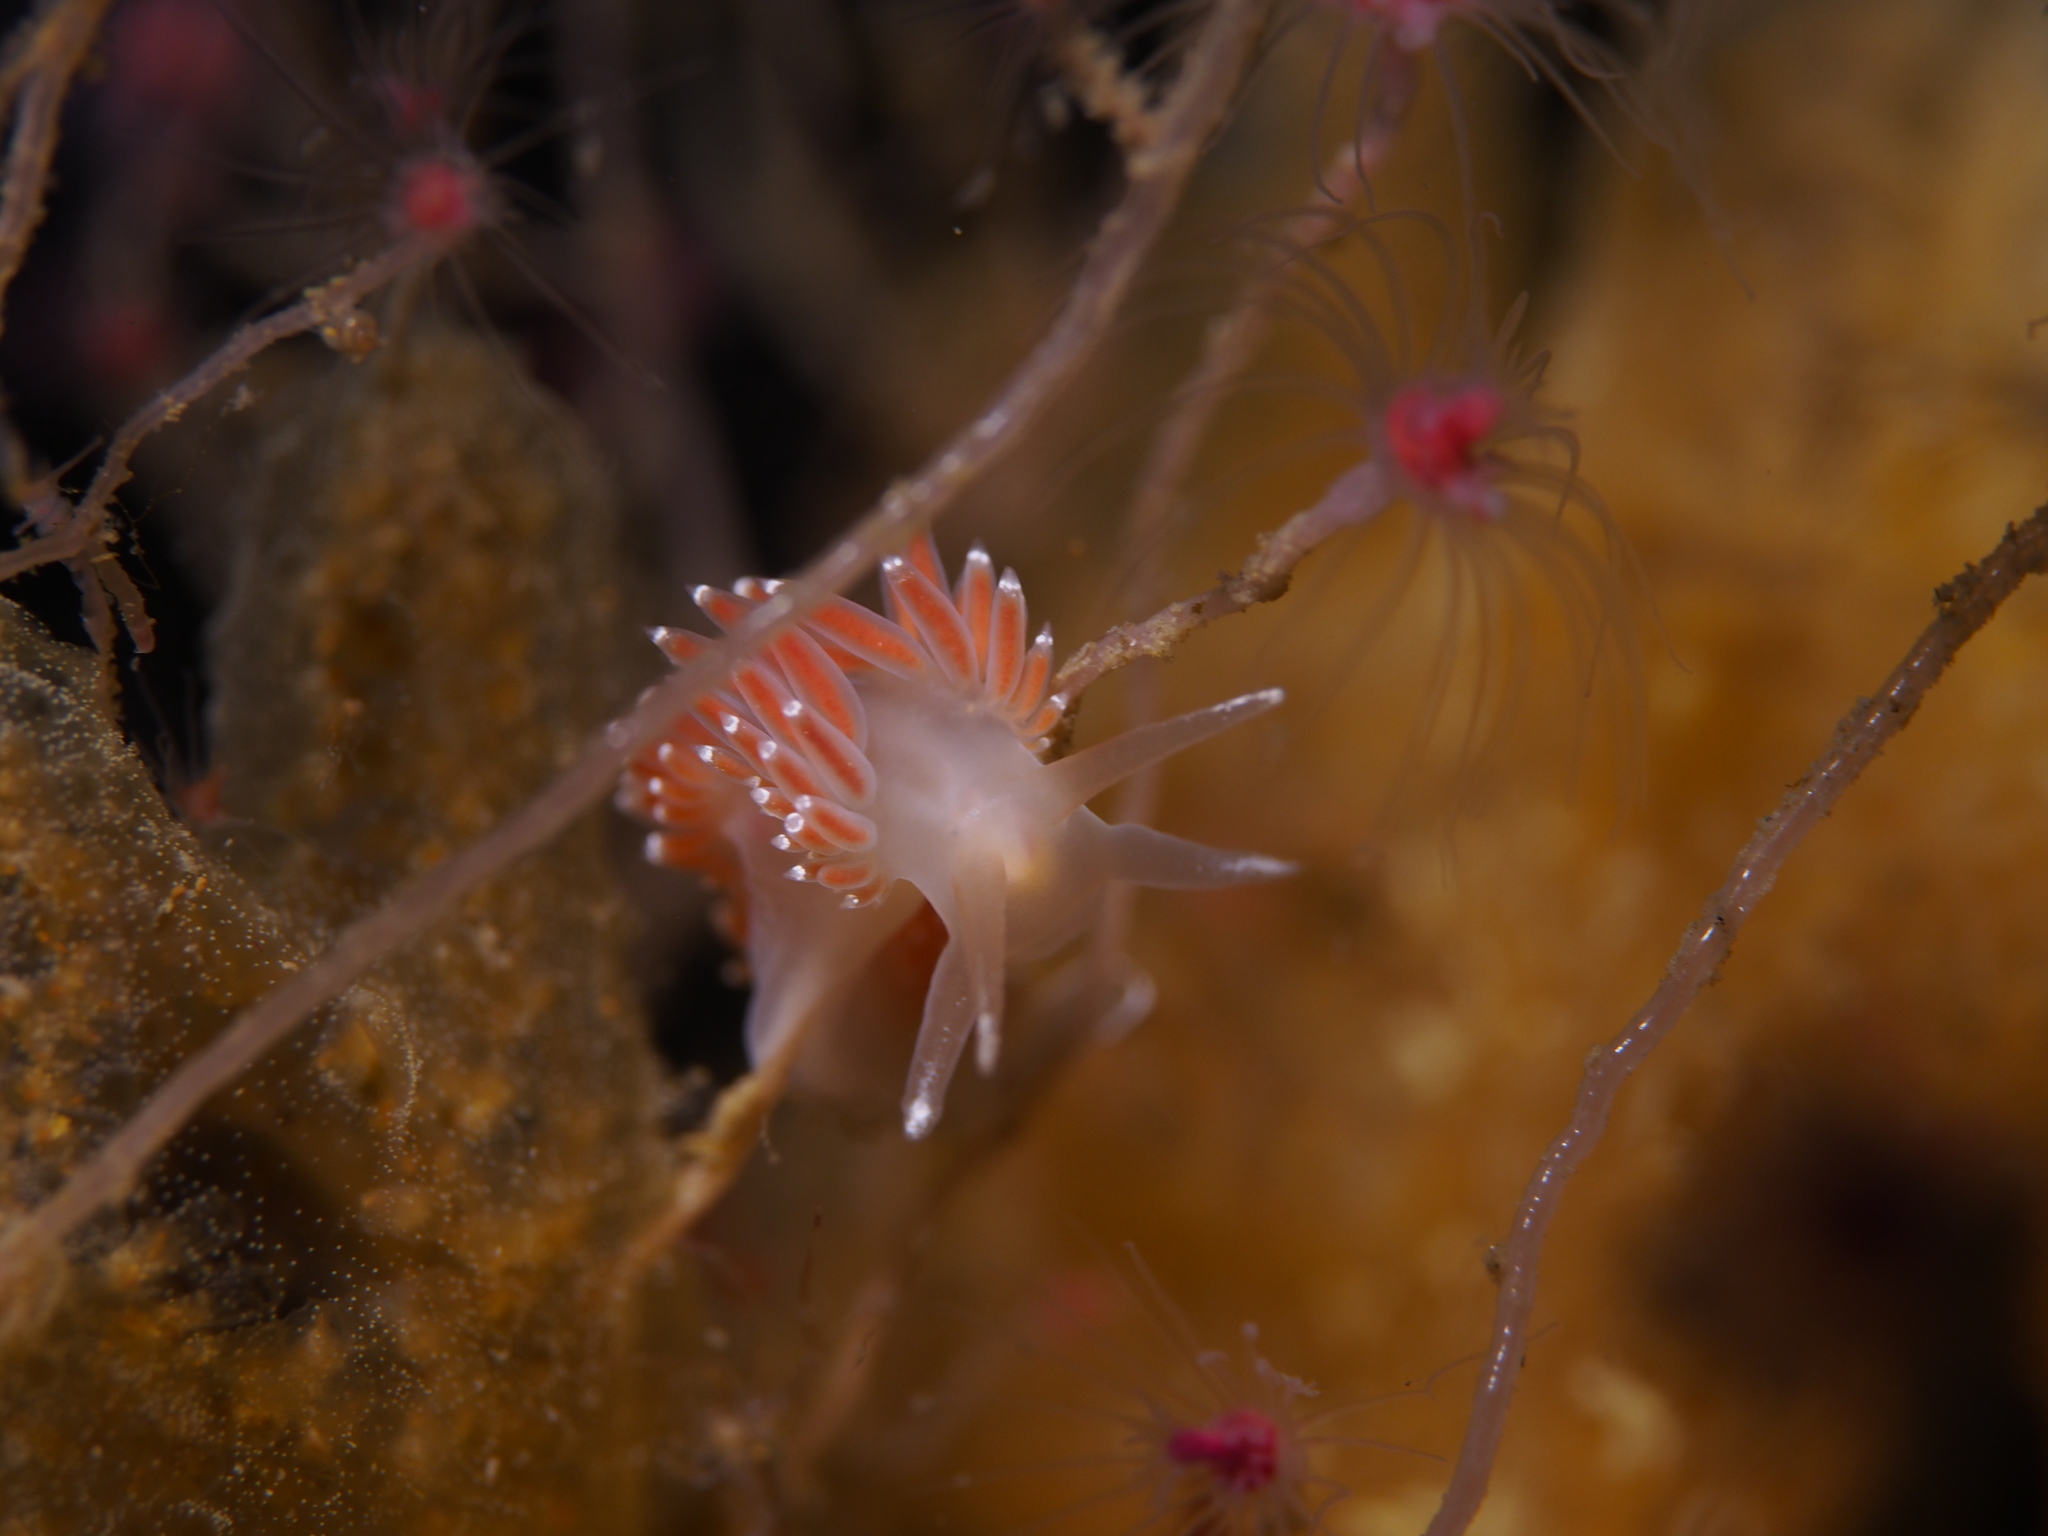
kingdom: Animalia
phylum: Mollusca
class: Gastropoda
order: Nudibranchia
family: Coryphellidae
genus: Coryphella
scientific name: Coryphella verrucosa
